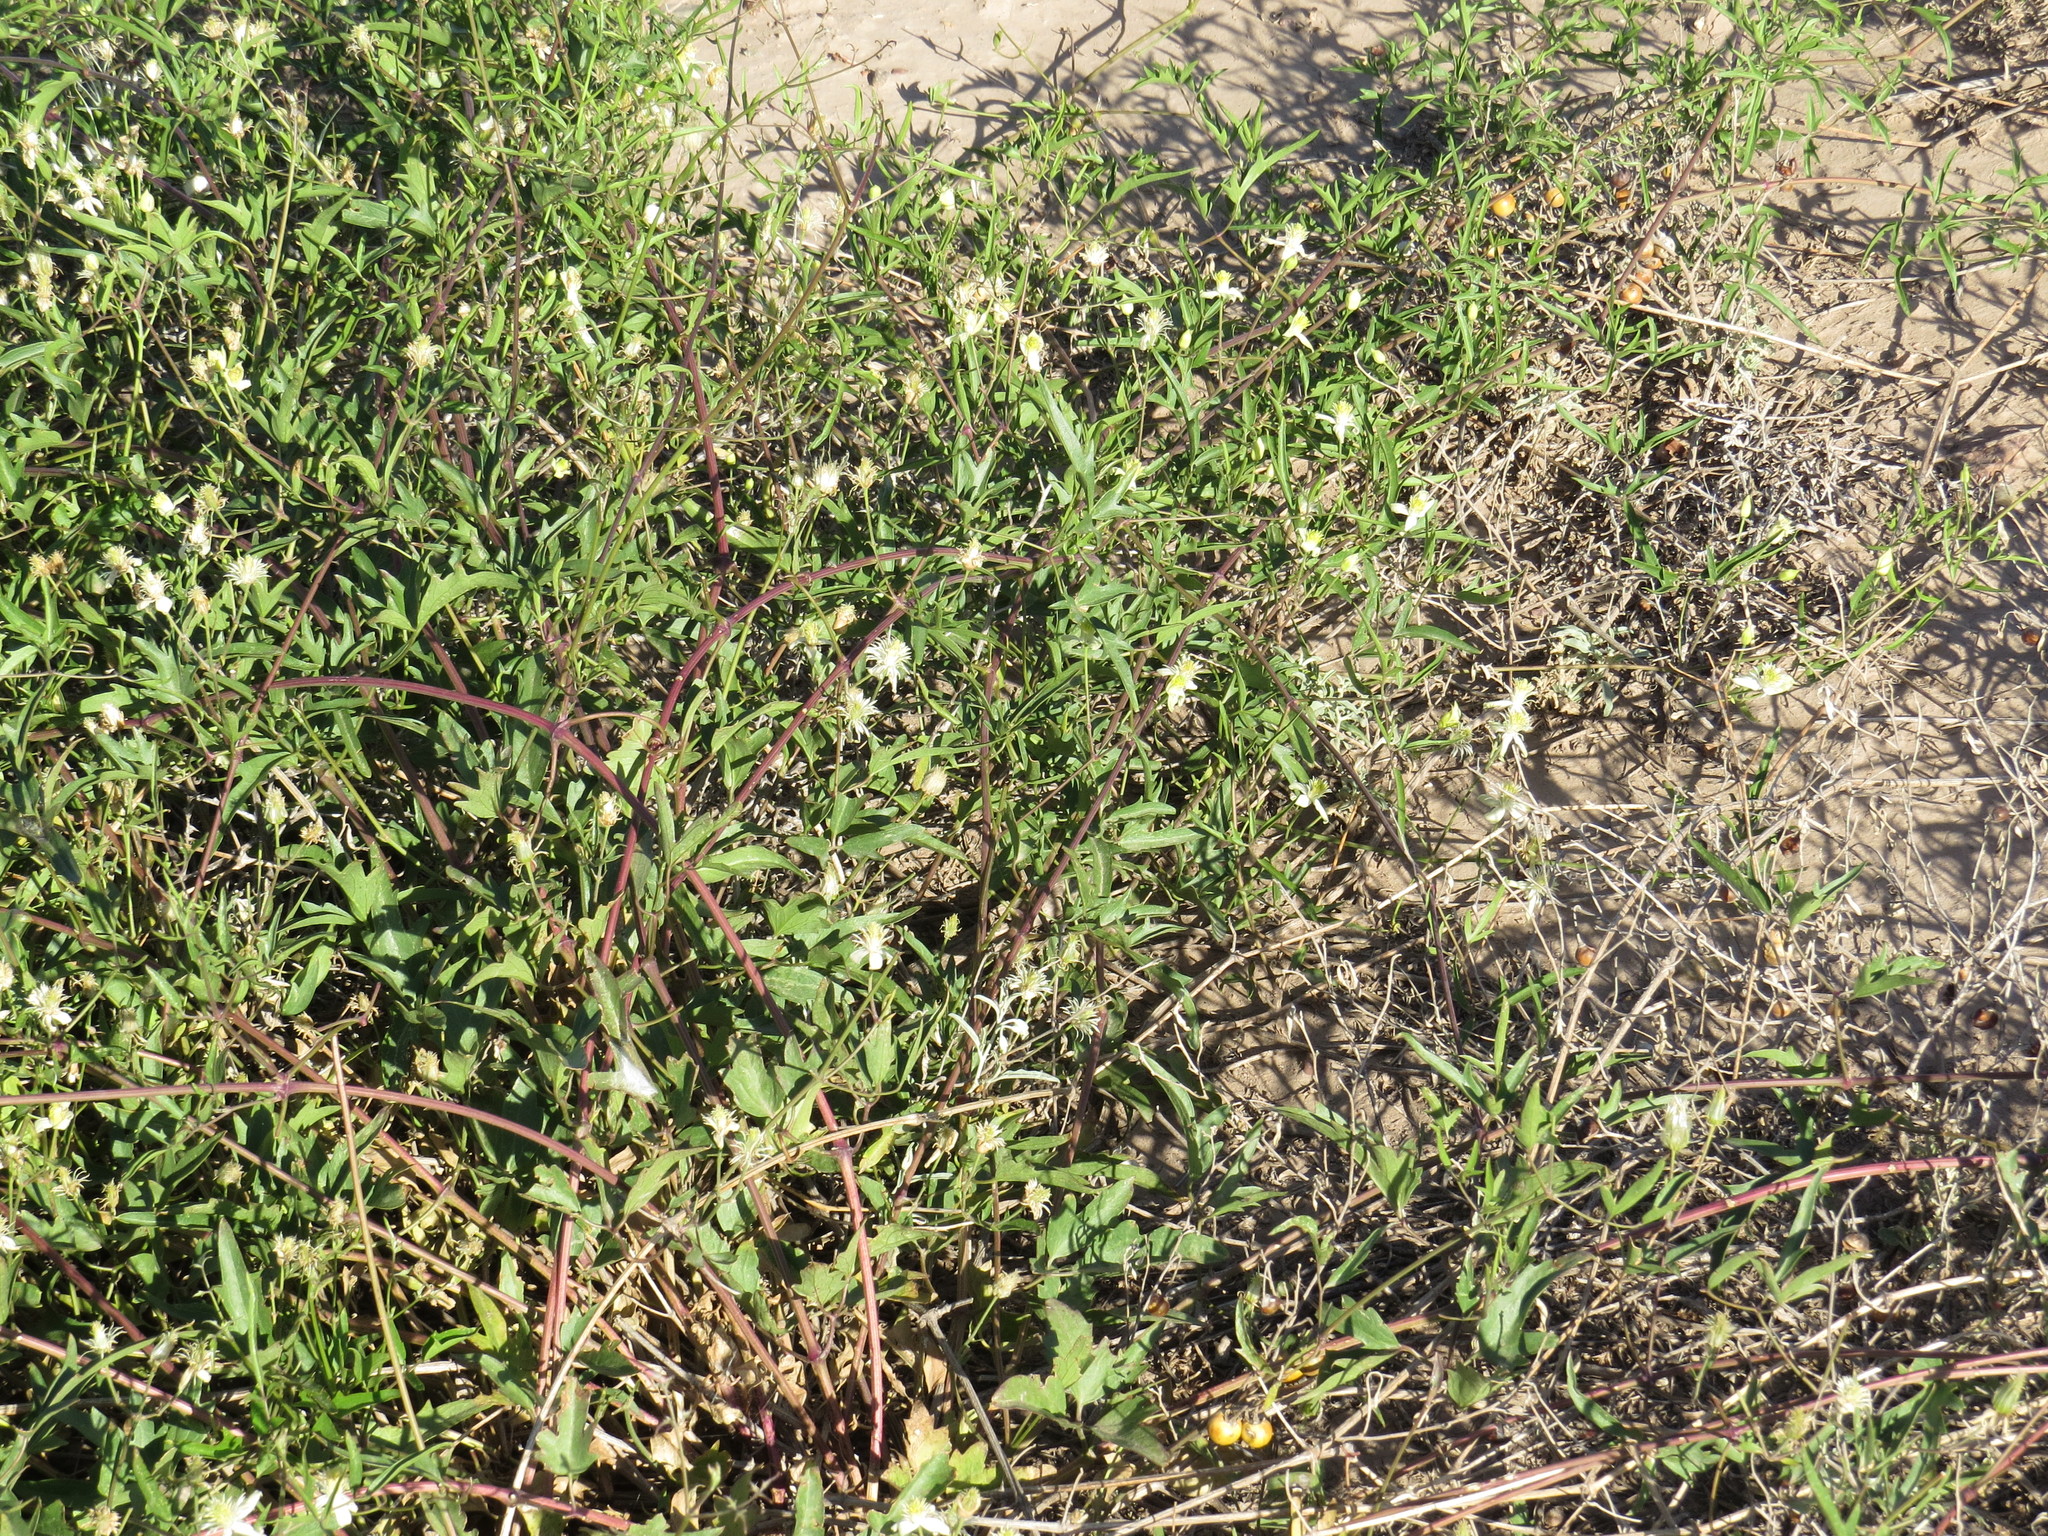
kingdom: Plantae
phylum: Tracheophyta
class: Magnoliopsida
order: Ranunculales
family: Ranunculaceae
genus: Clematis
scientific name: Clematis montevidensis
